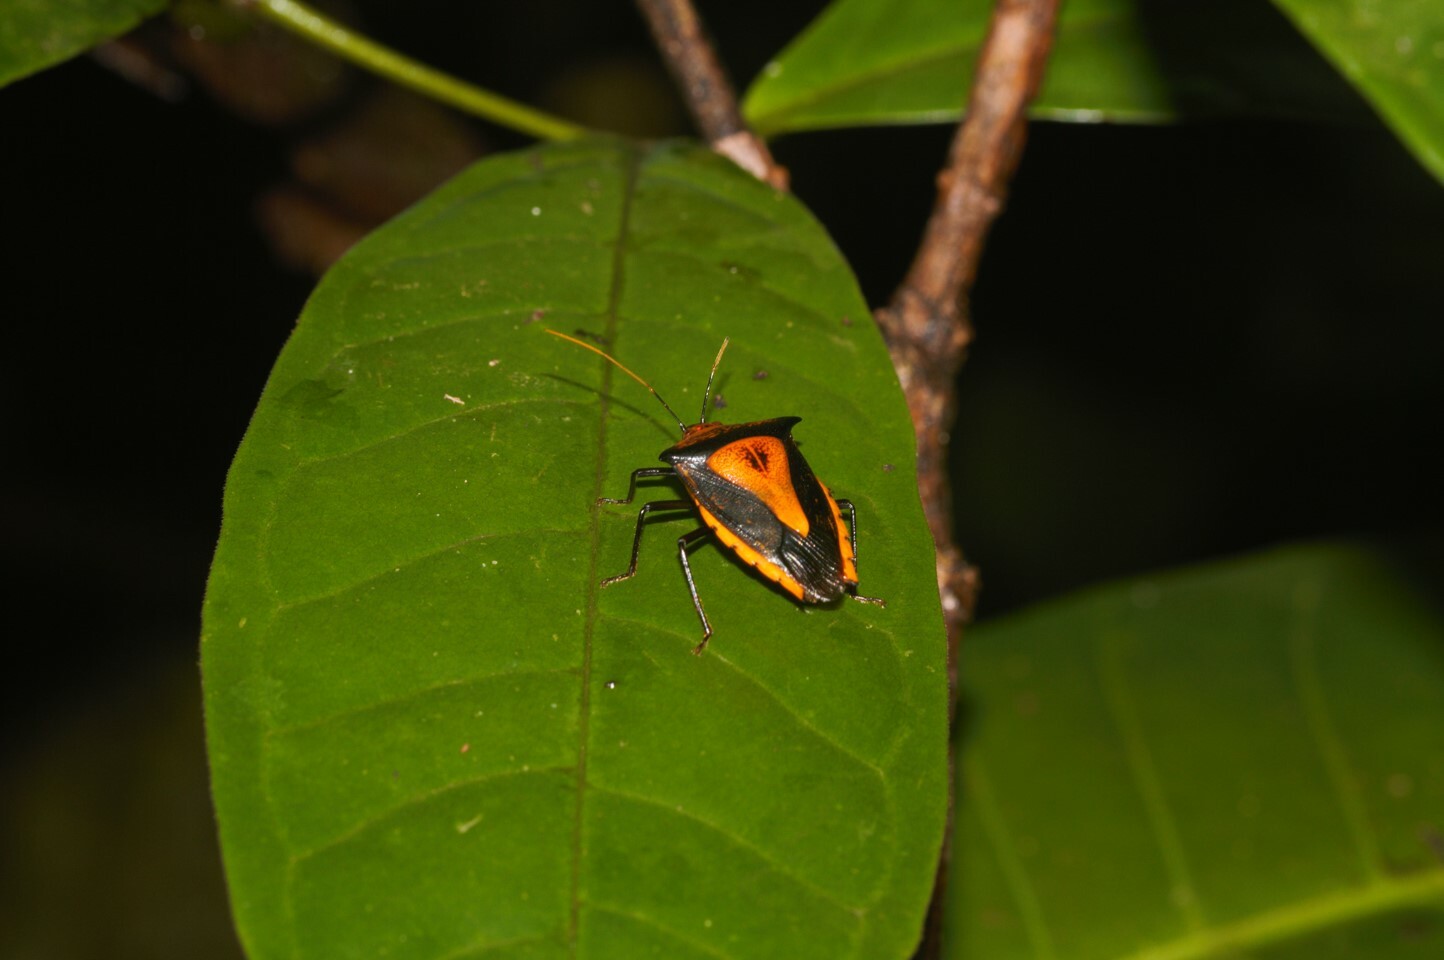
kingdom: Animalia
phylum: Arthropoda
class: Insecta
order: Hemiptera
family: Pentatomidae
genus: Edessa
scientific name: Edessa scutellata
